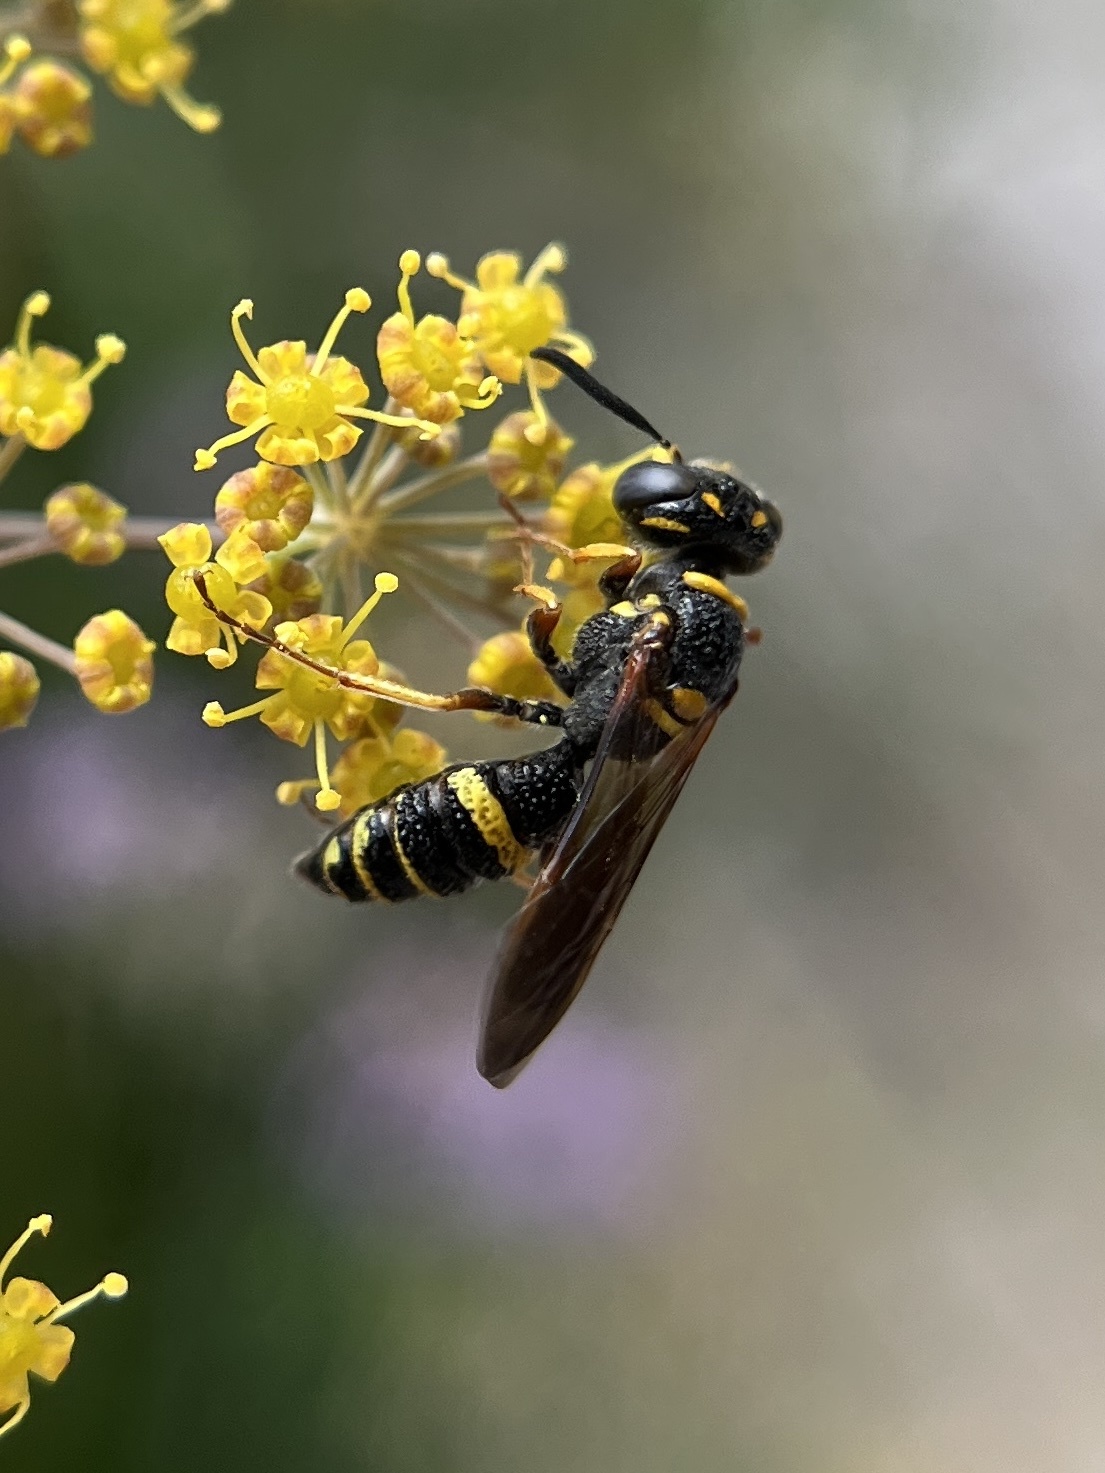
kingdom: Animalia
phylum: Arthropoda
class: Insecta
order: Hymenoptera
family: Crabronidae
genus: Philanthus
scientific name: Philanthus gibbosus
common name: Humped beewolf
